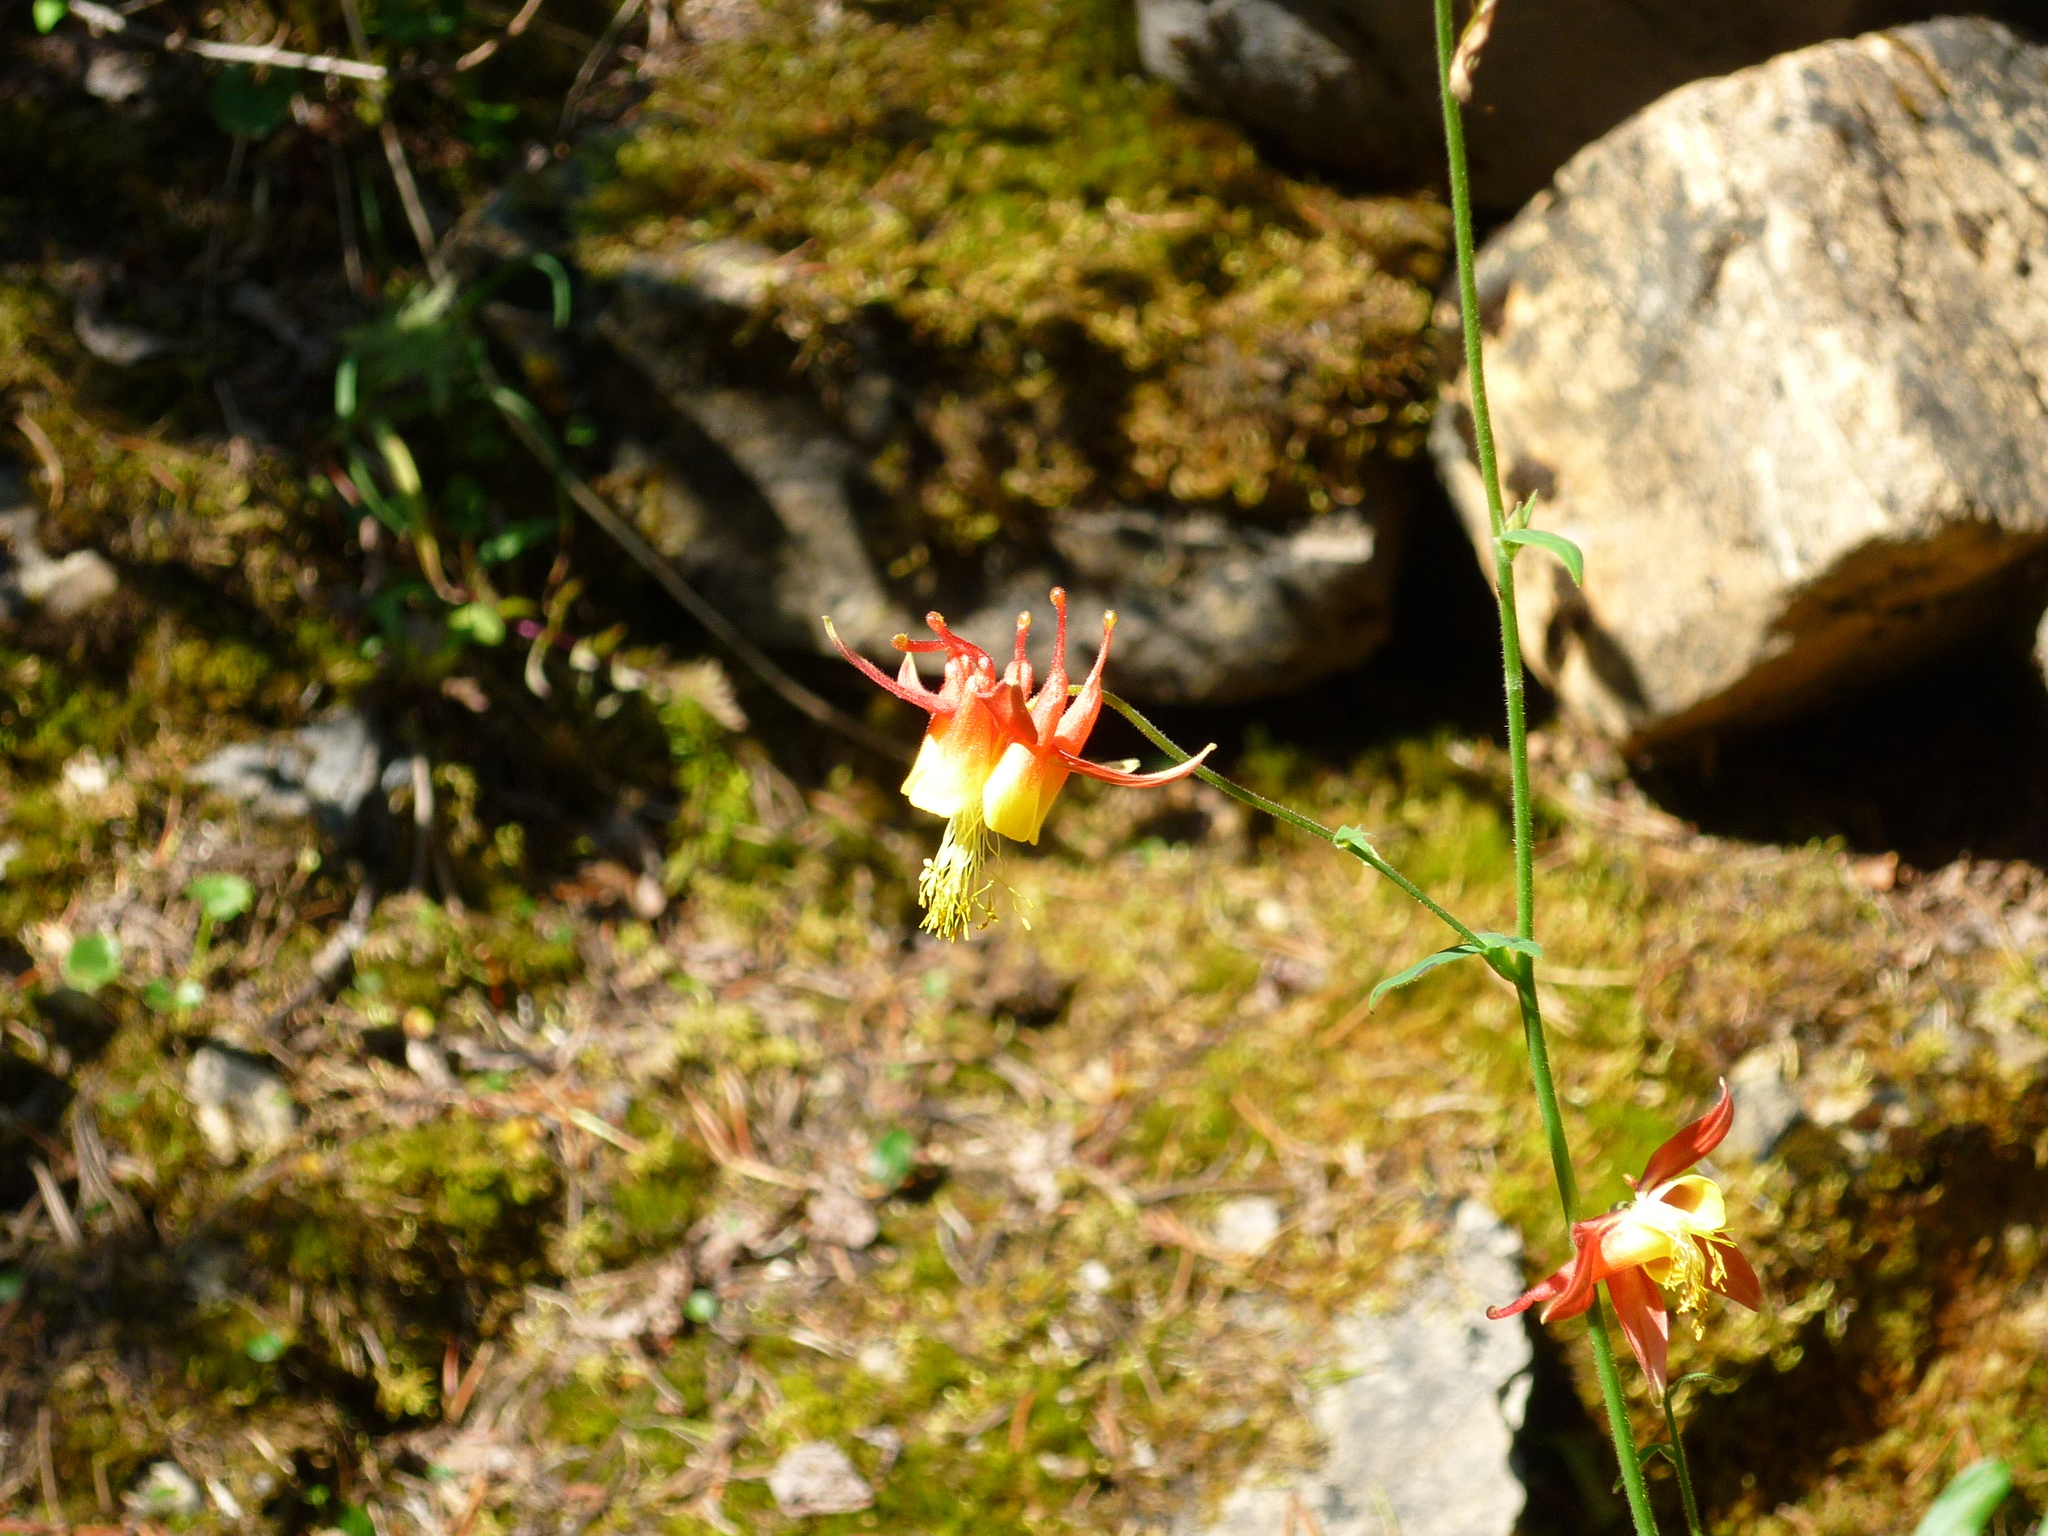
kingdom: Plantae
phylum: Tracheophyta
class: Magnoliopsida
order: Ranunculales
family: Ranunculaceae
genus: Aquilegia
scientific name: Aquilegia formosa
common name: Sitka columbine
